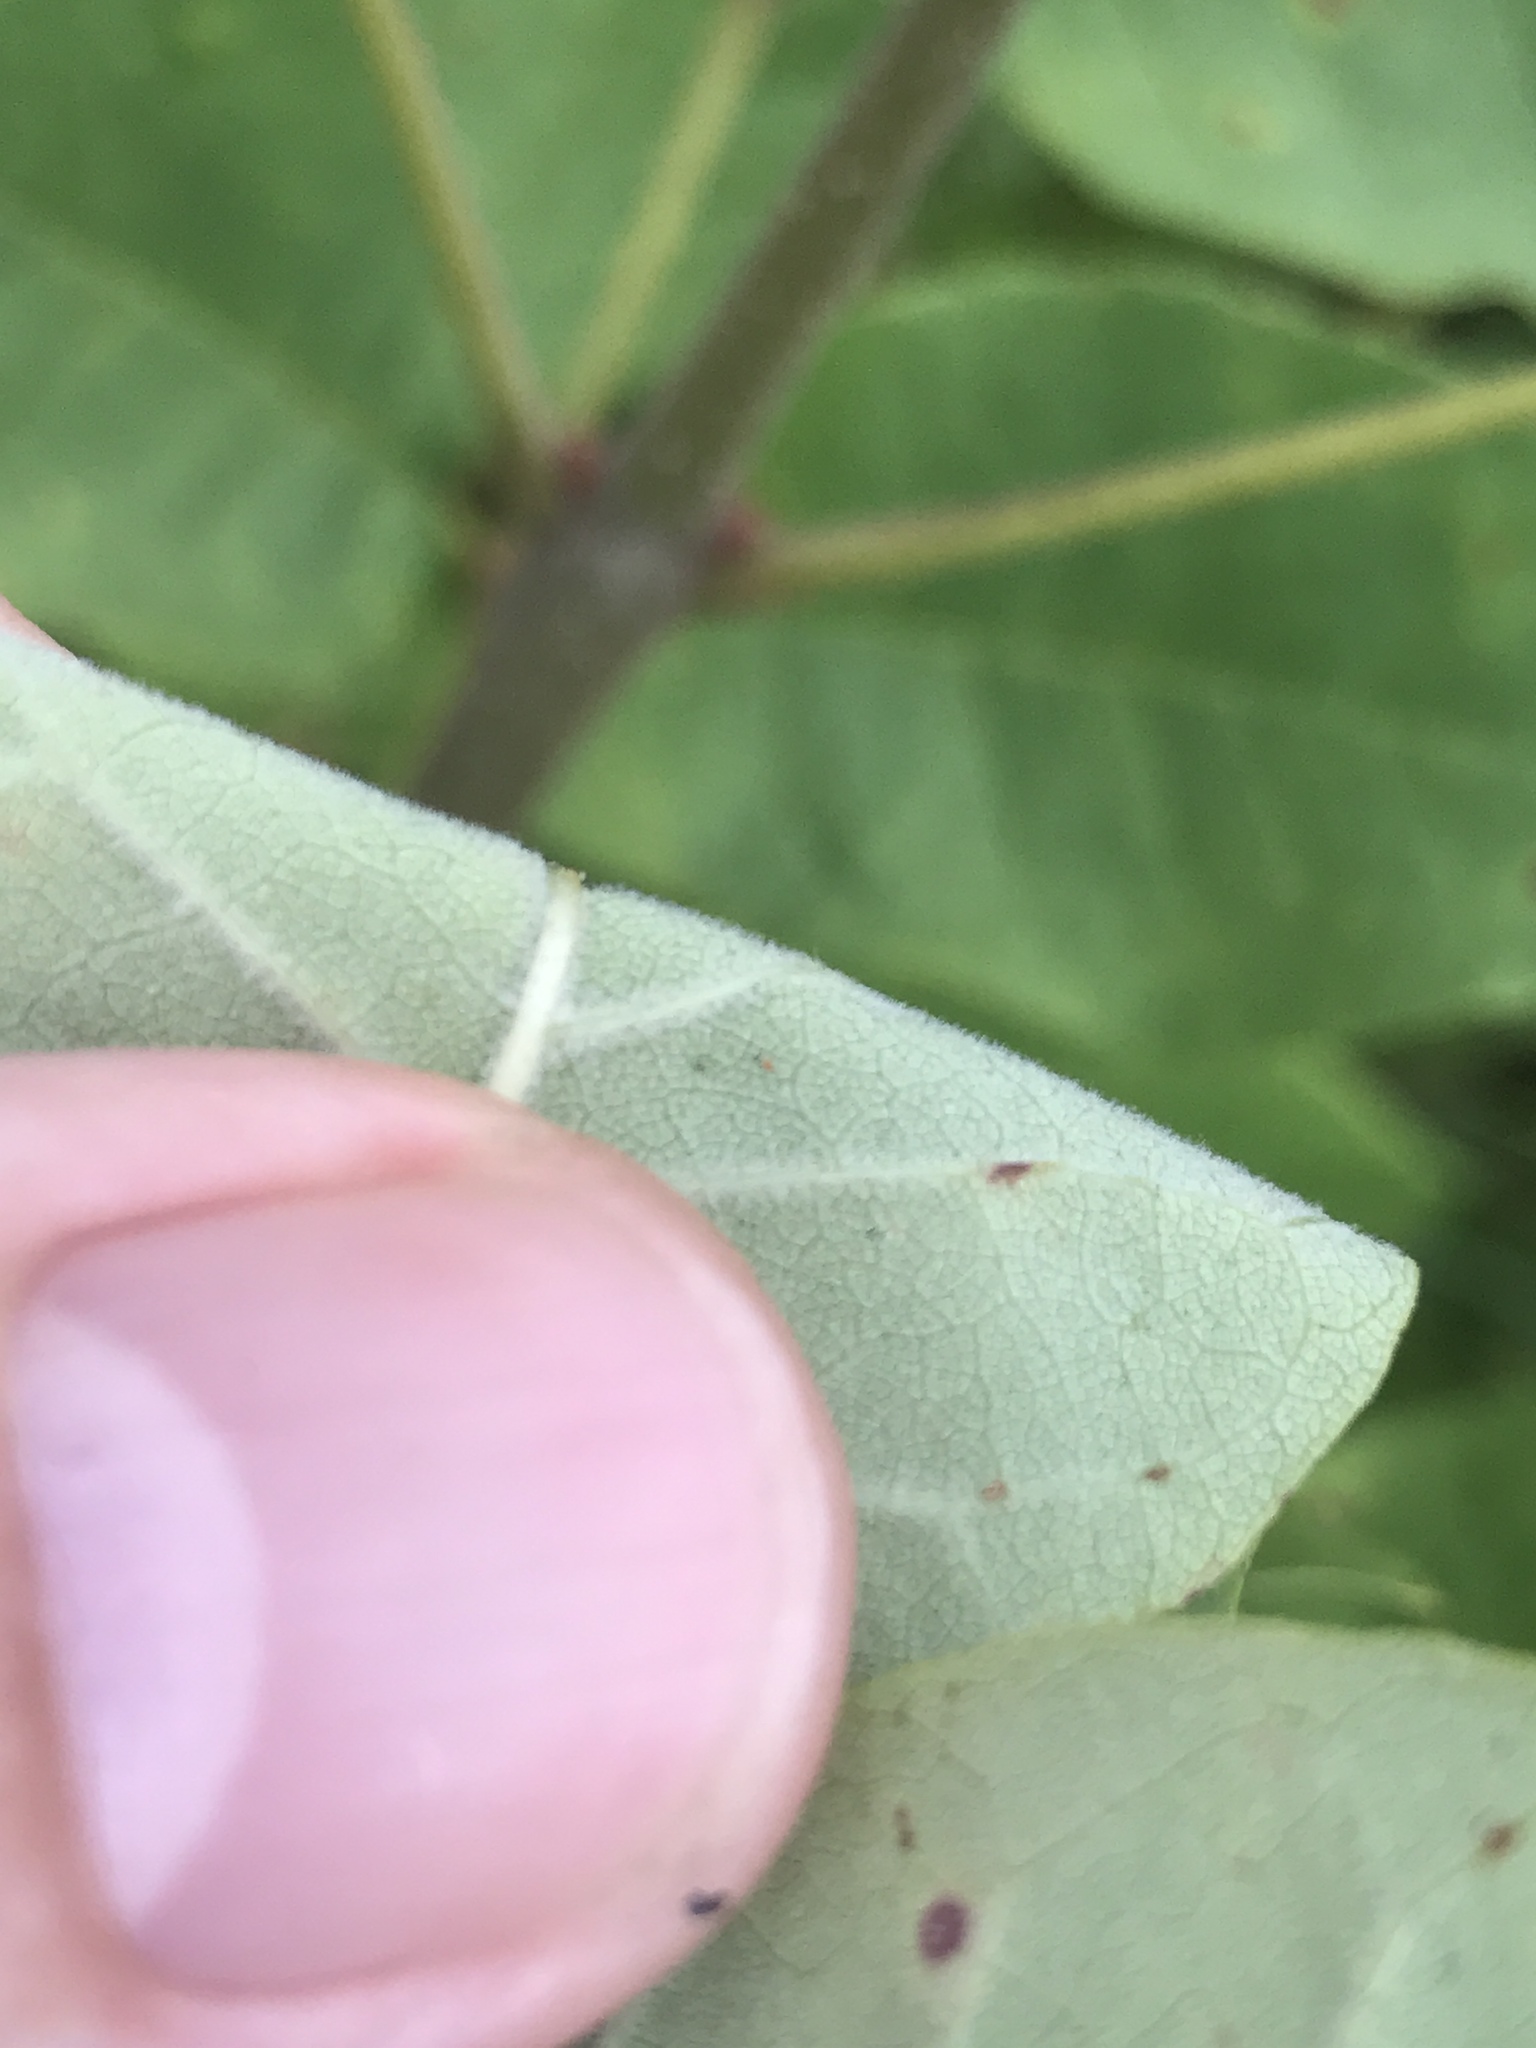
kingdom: Plantae
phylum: Tracheophyta
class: Magnoliopsida
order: Lamiales
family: Oleaceae
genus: Fraxinus
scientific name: Fraxinus americana
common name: White ash
